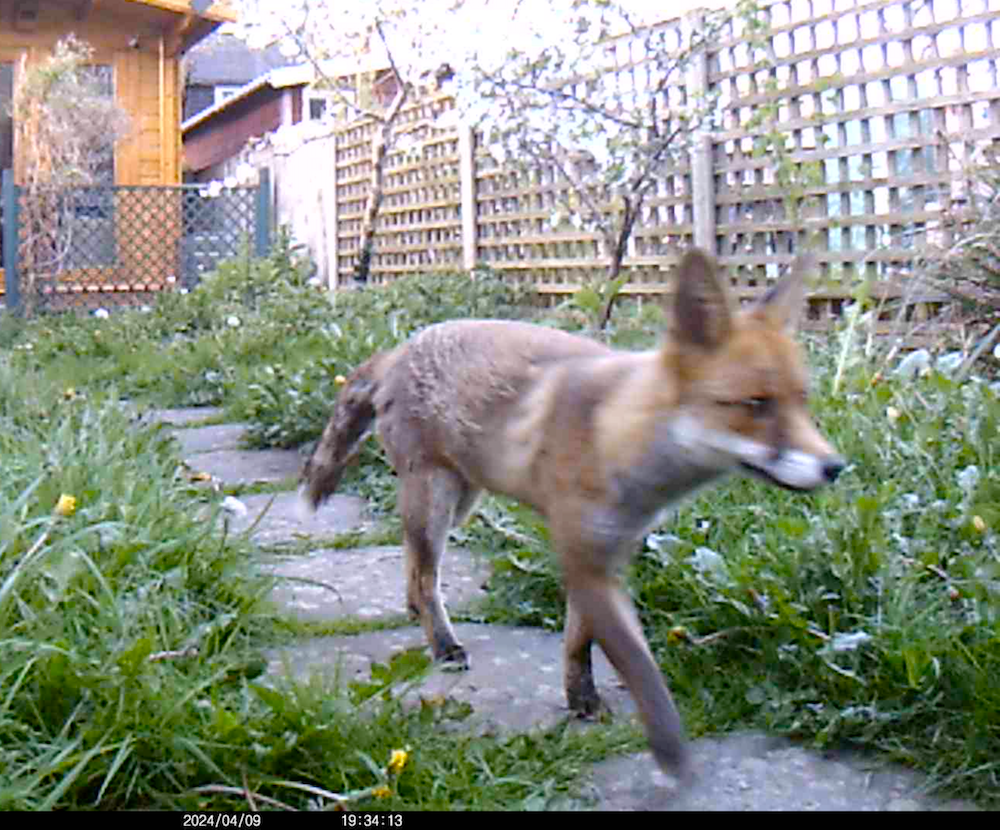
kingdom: Animalia
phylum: Chordata
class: Mammalia
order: Carnivora
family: Canidae
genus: Vulpes
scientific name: Vulpes vulpes
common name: Red fox
